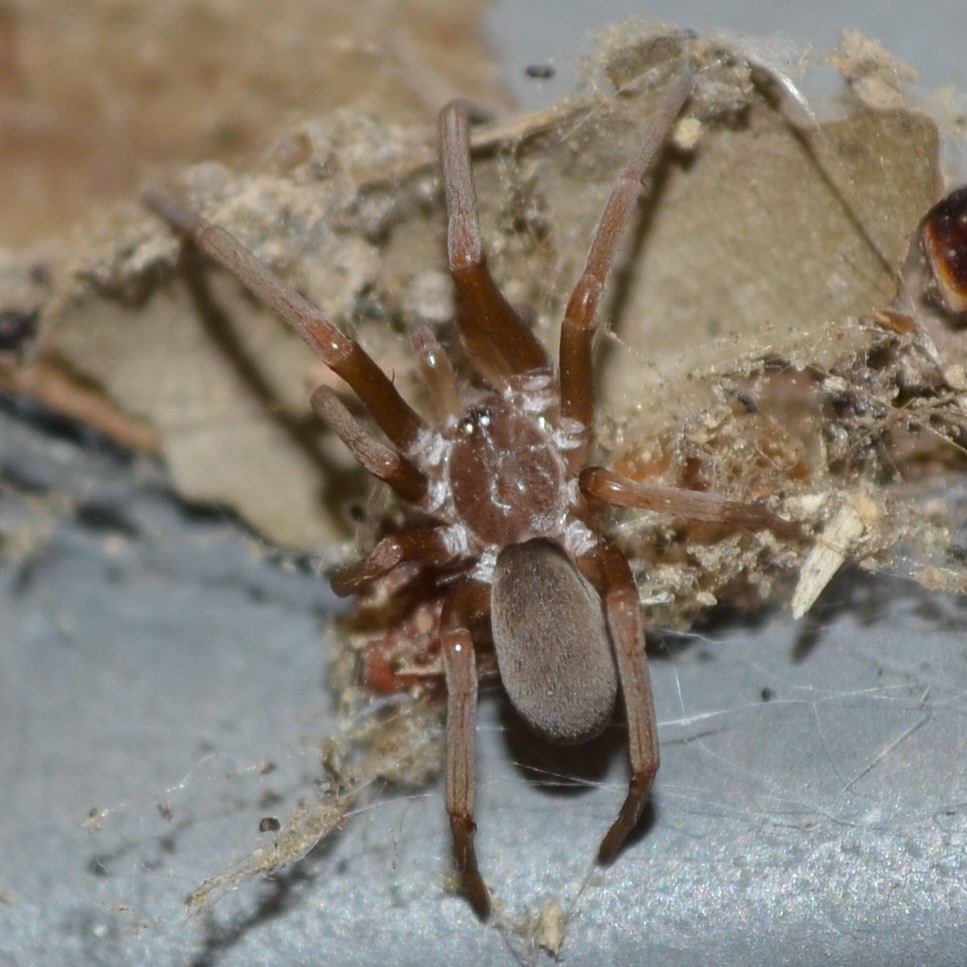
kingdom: Animalia
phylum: Arthropoda
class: Arachnida
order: Araneae
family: Filistatidae
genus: Kukulcania
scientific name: Kukulcania hibernalis
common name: Crevice weaver
